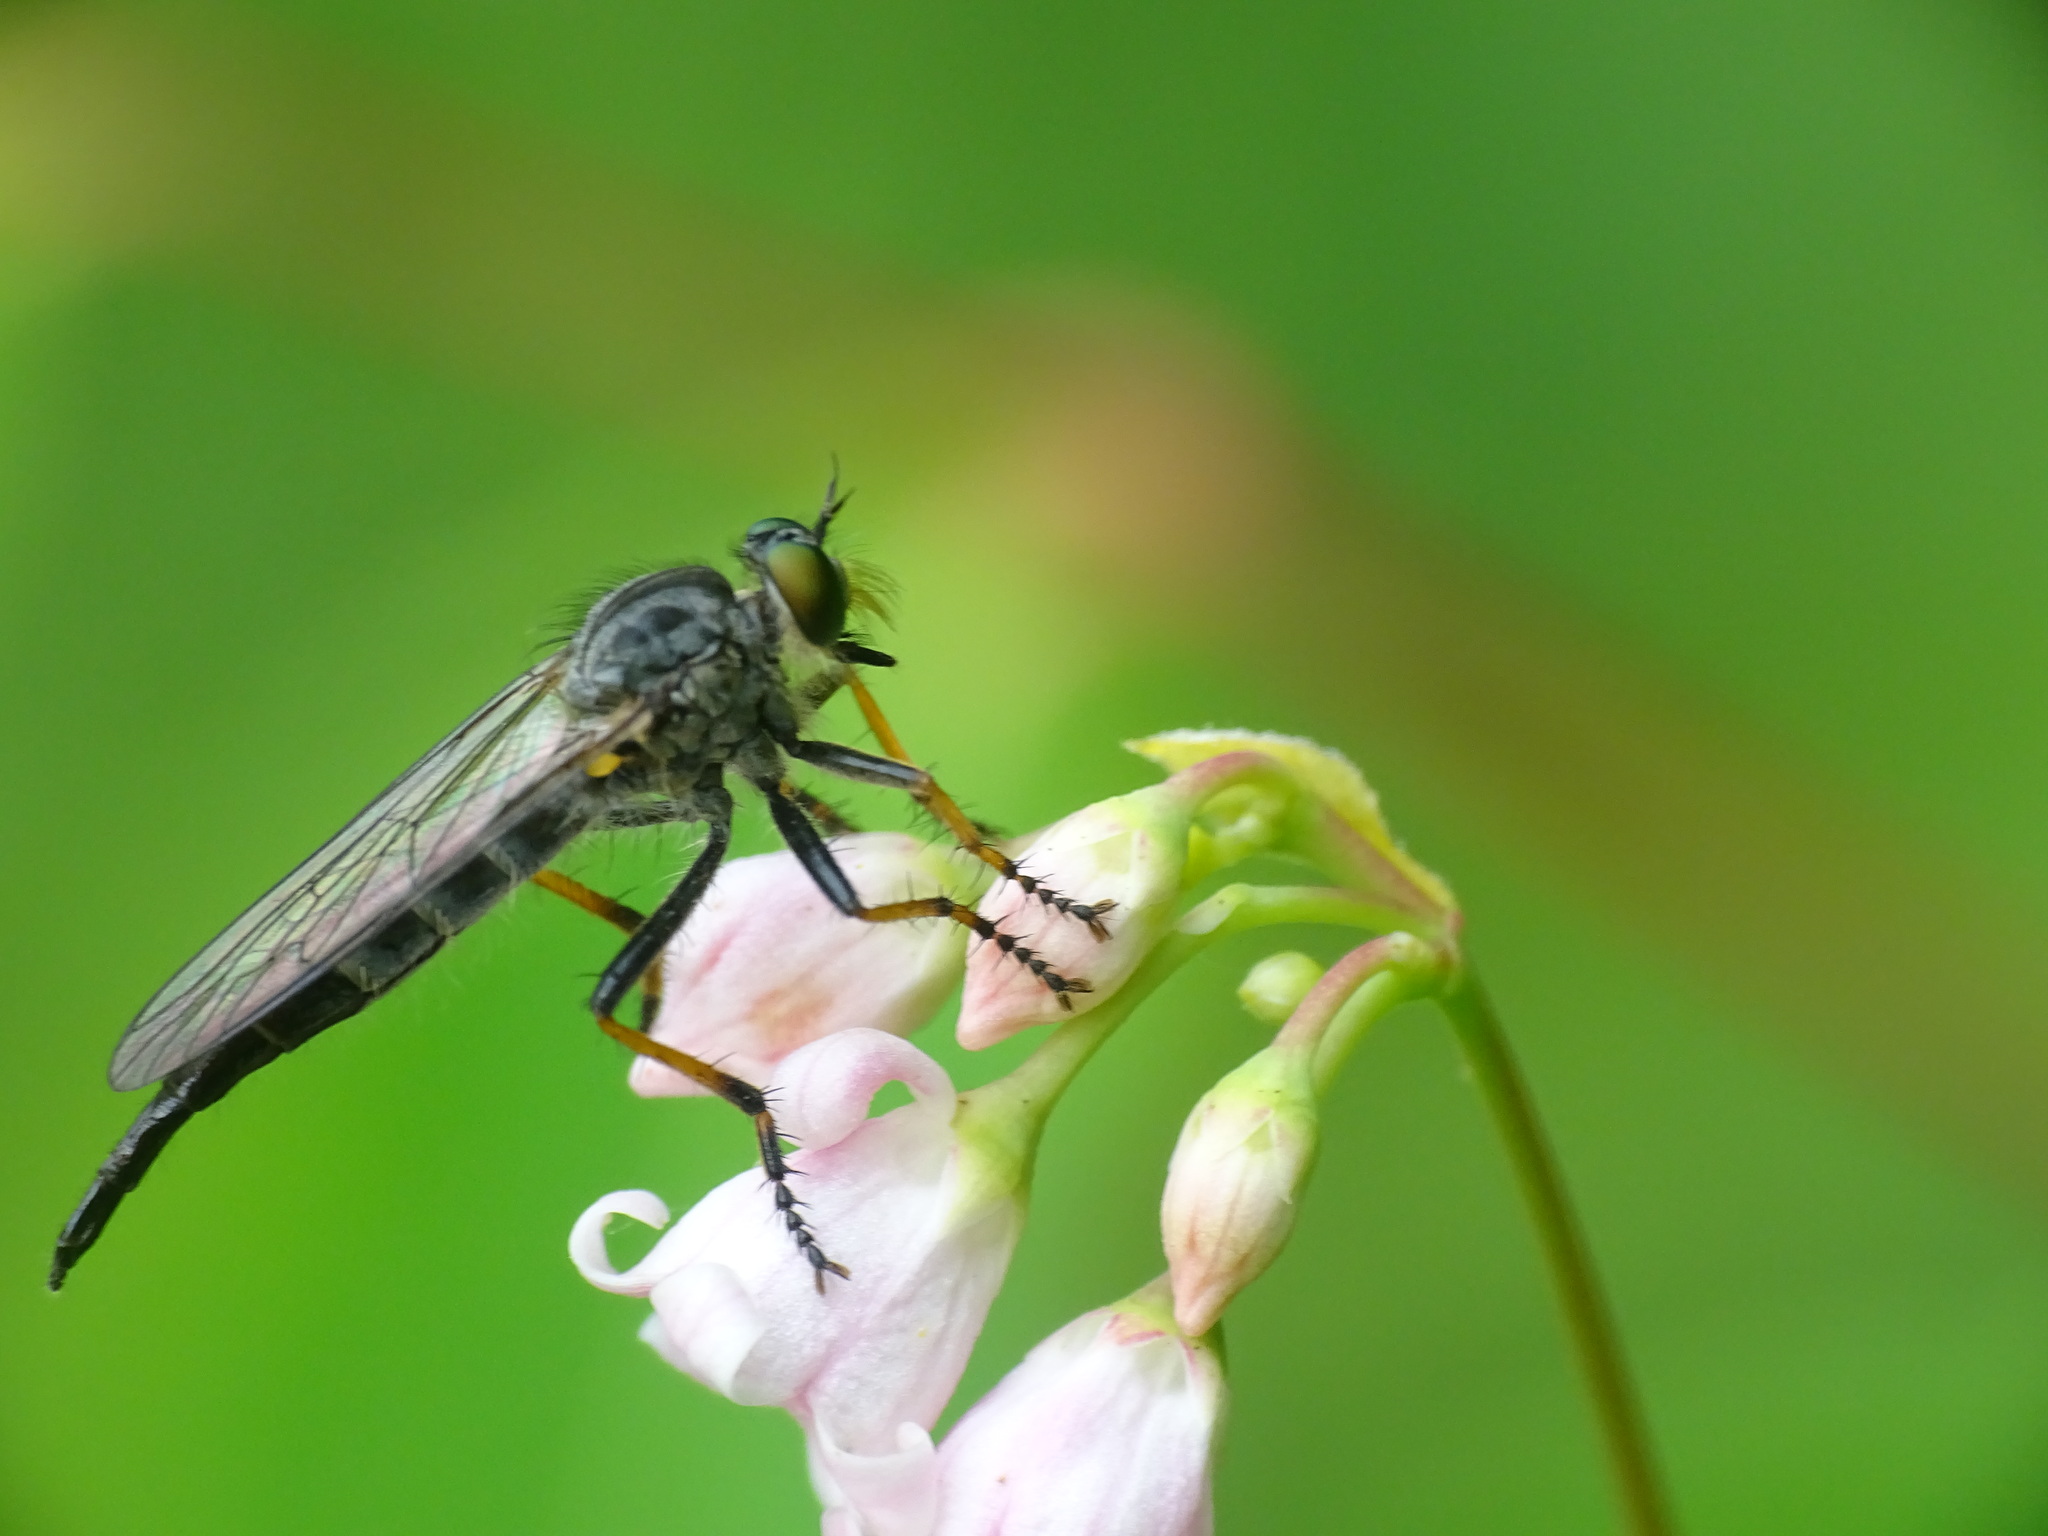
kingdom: Animalia
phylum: Arthropoda
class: Insecta
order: Diptera
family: Asilidae
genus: Neoitamus
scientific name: Neoitamus orphne
